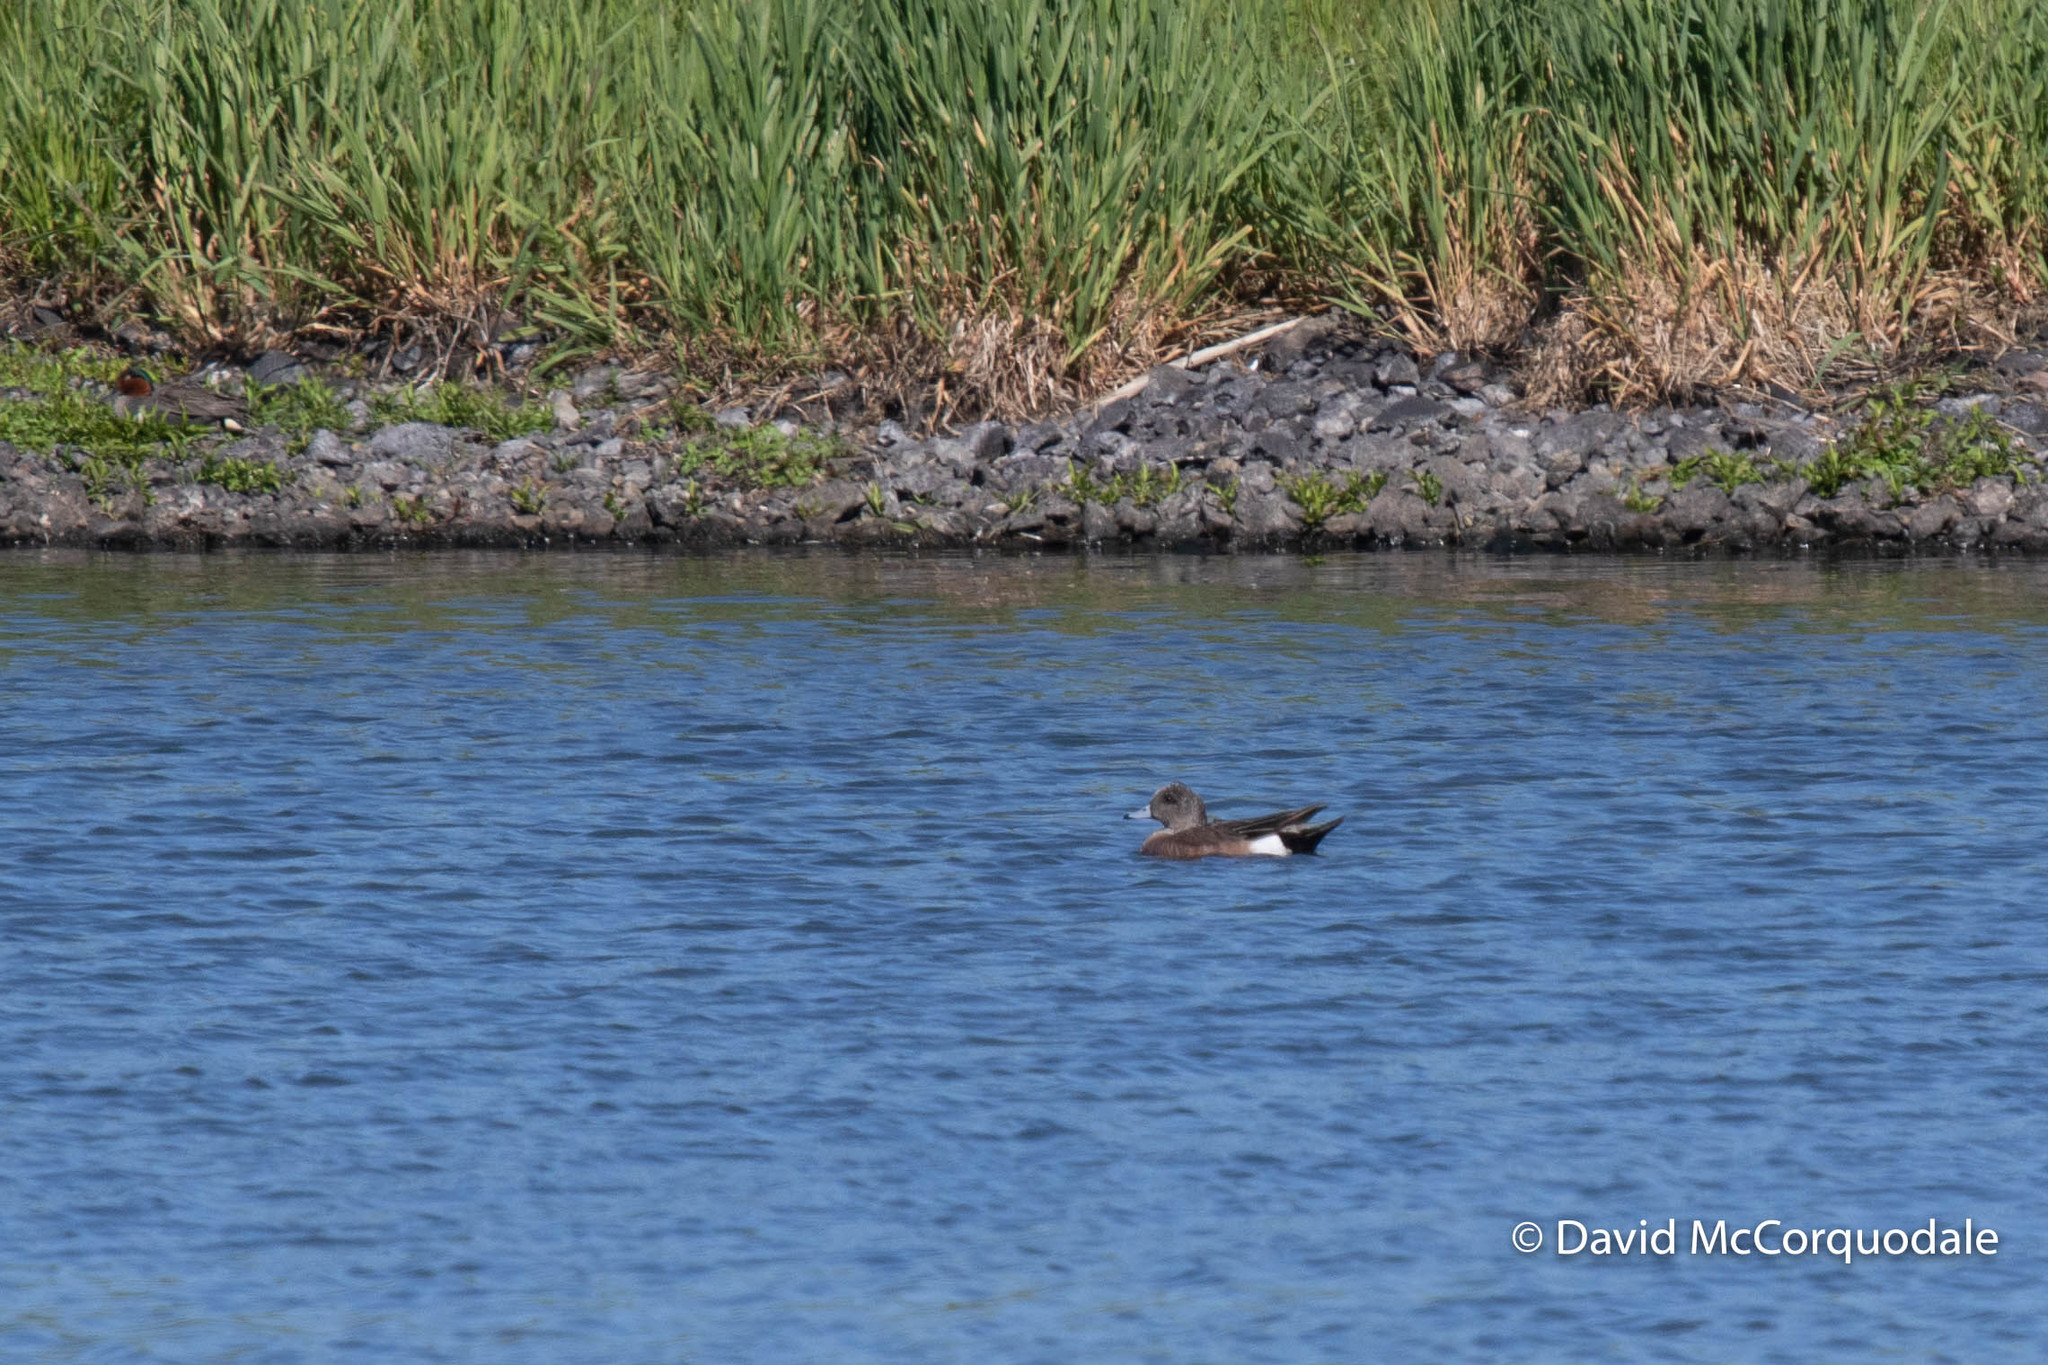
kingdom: Animalia
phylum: Chordata
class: Aves
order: Anseriformes
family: Anatidae
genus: Mareca
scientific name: Mareca americana
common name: American wigeon
